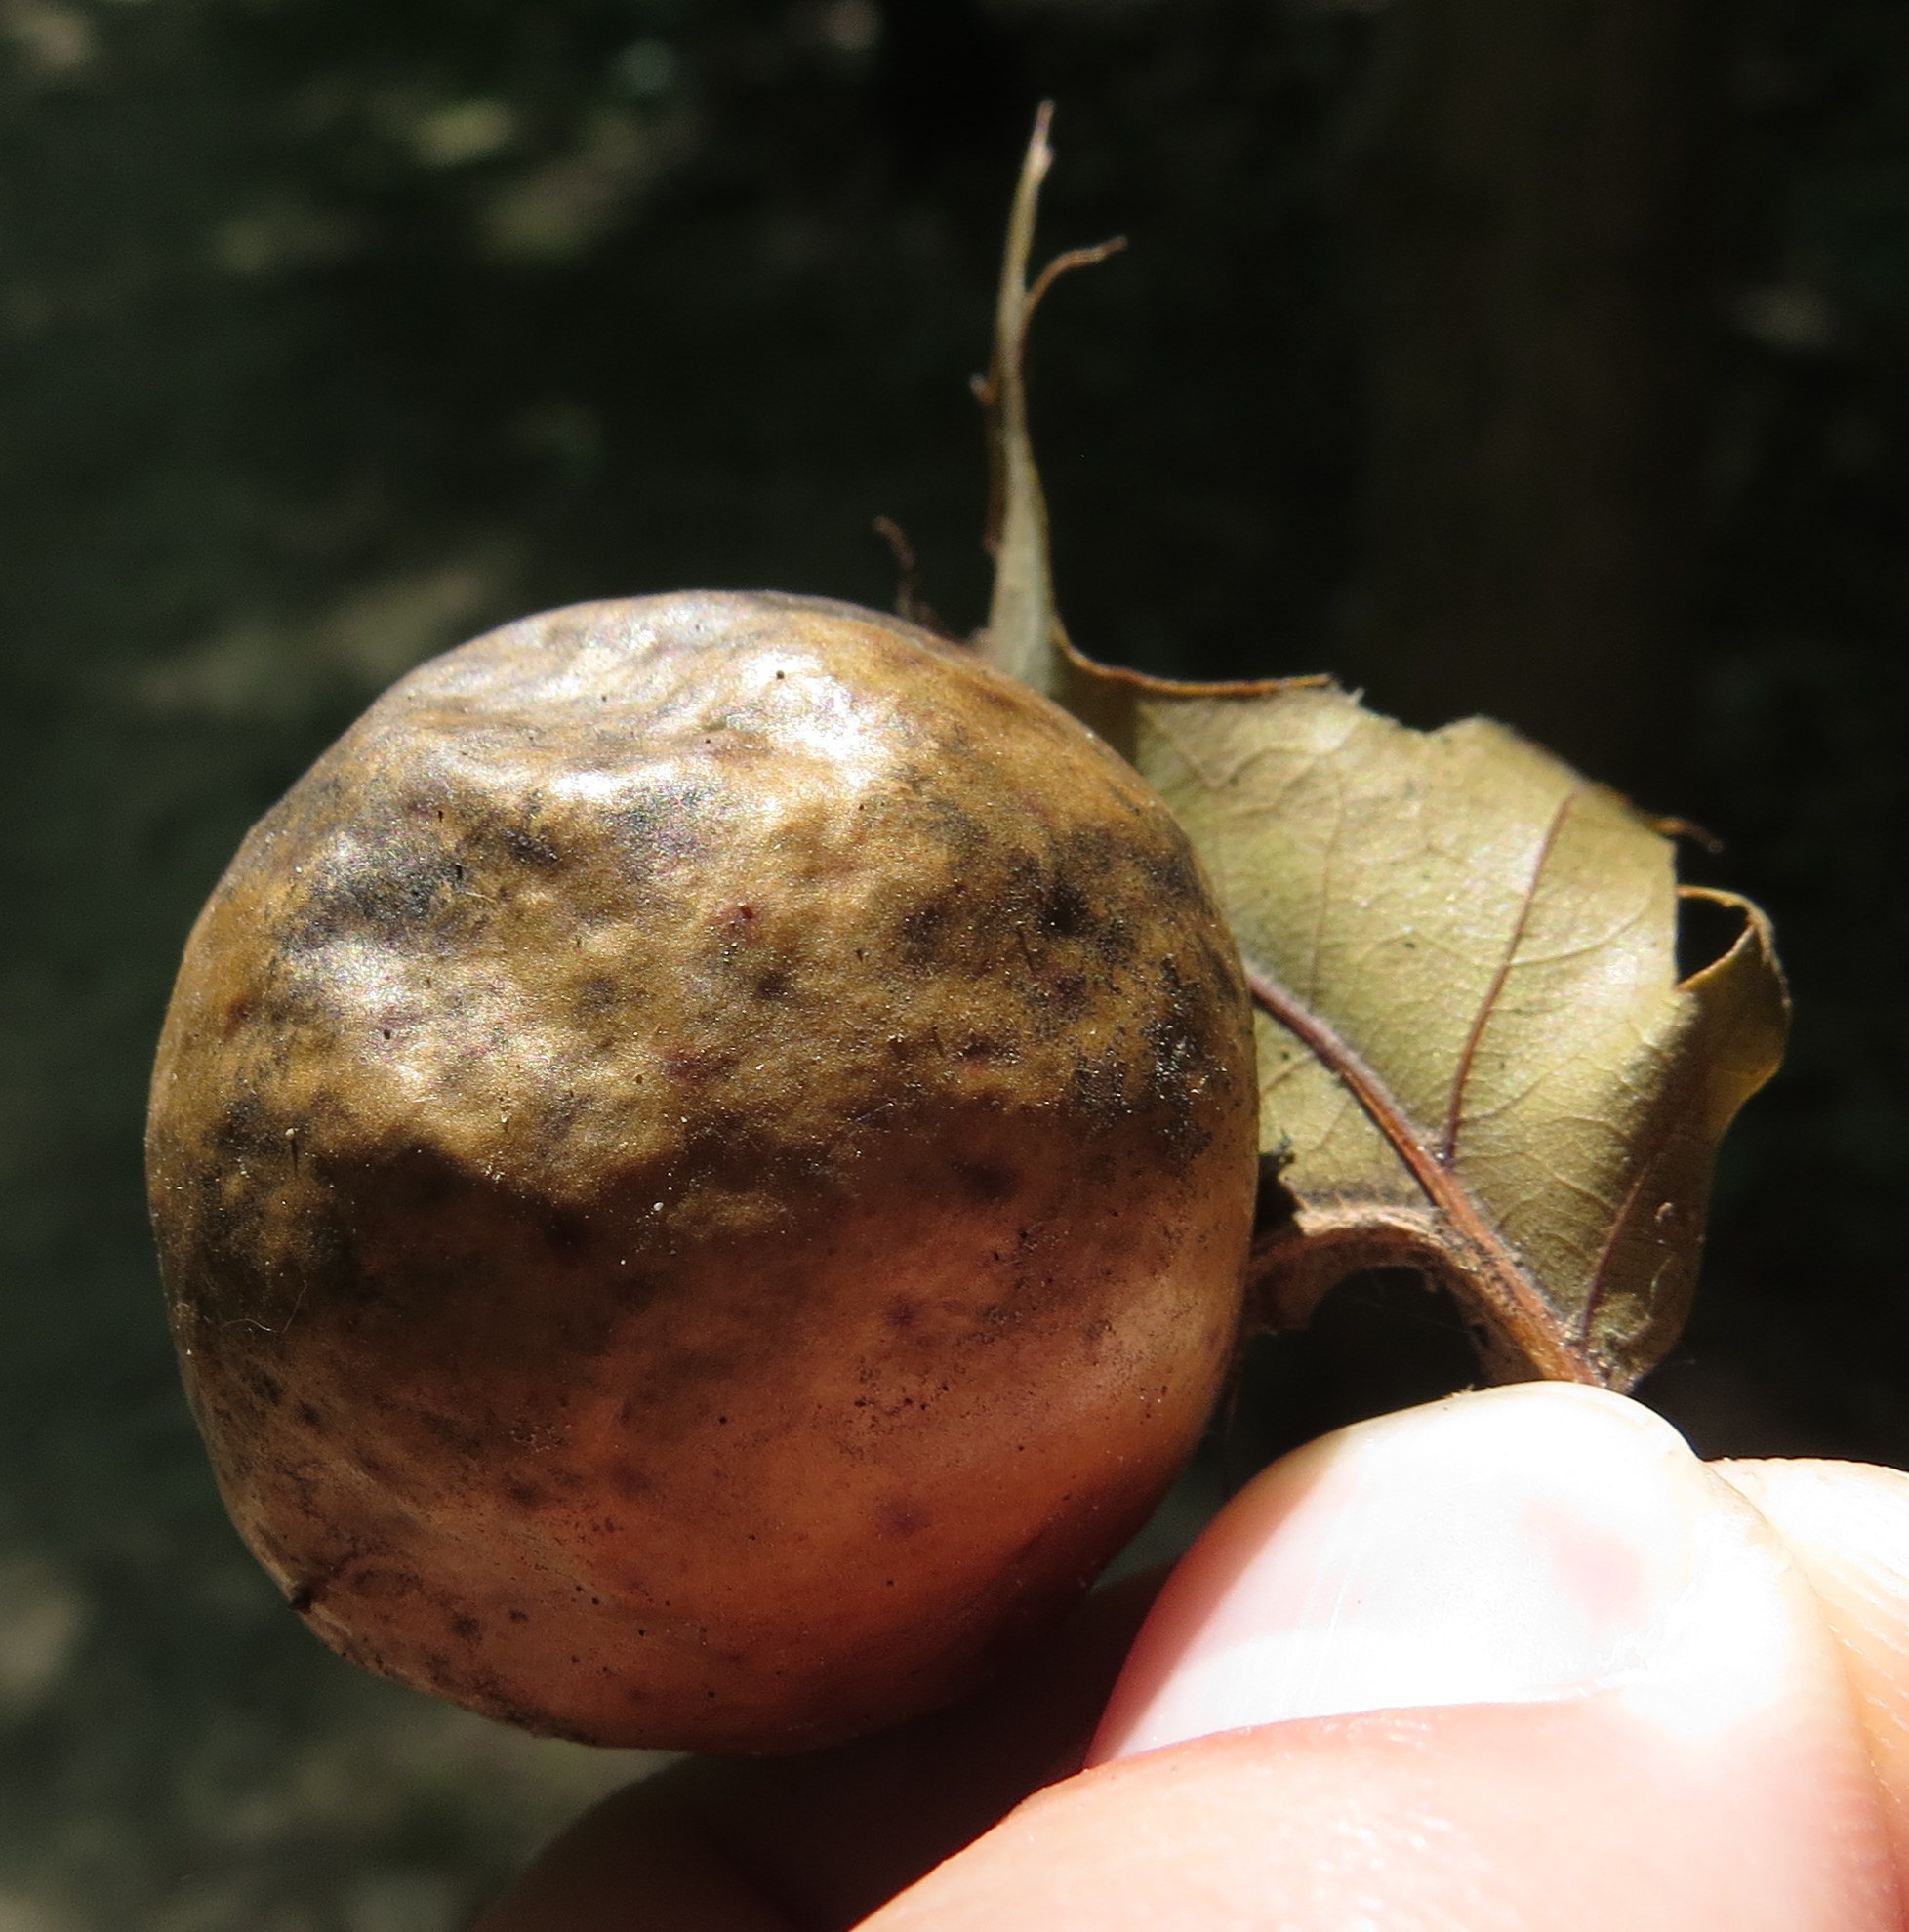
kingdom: Animalia
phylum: Arthropoda
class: Insecta
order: Hymenoptera
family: Cynipidae
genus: Amphibolips
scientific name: Amphibolips
